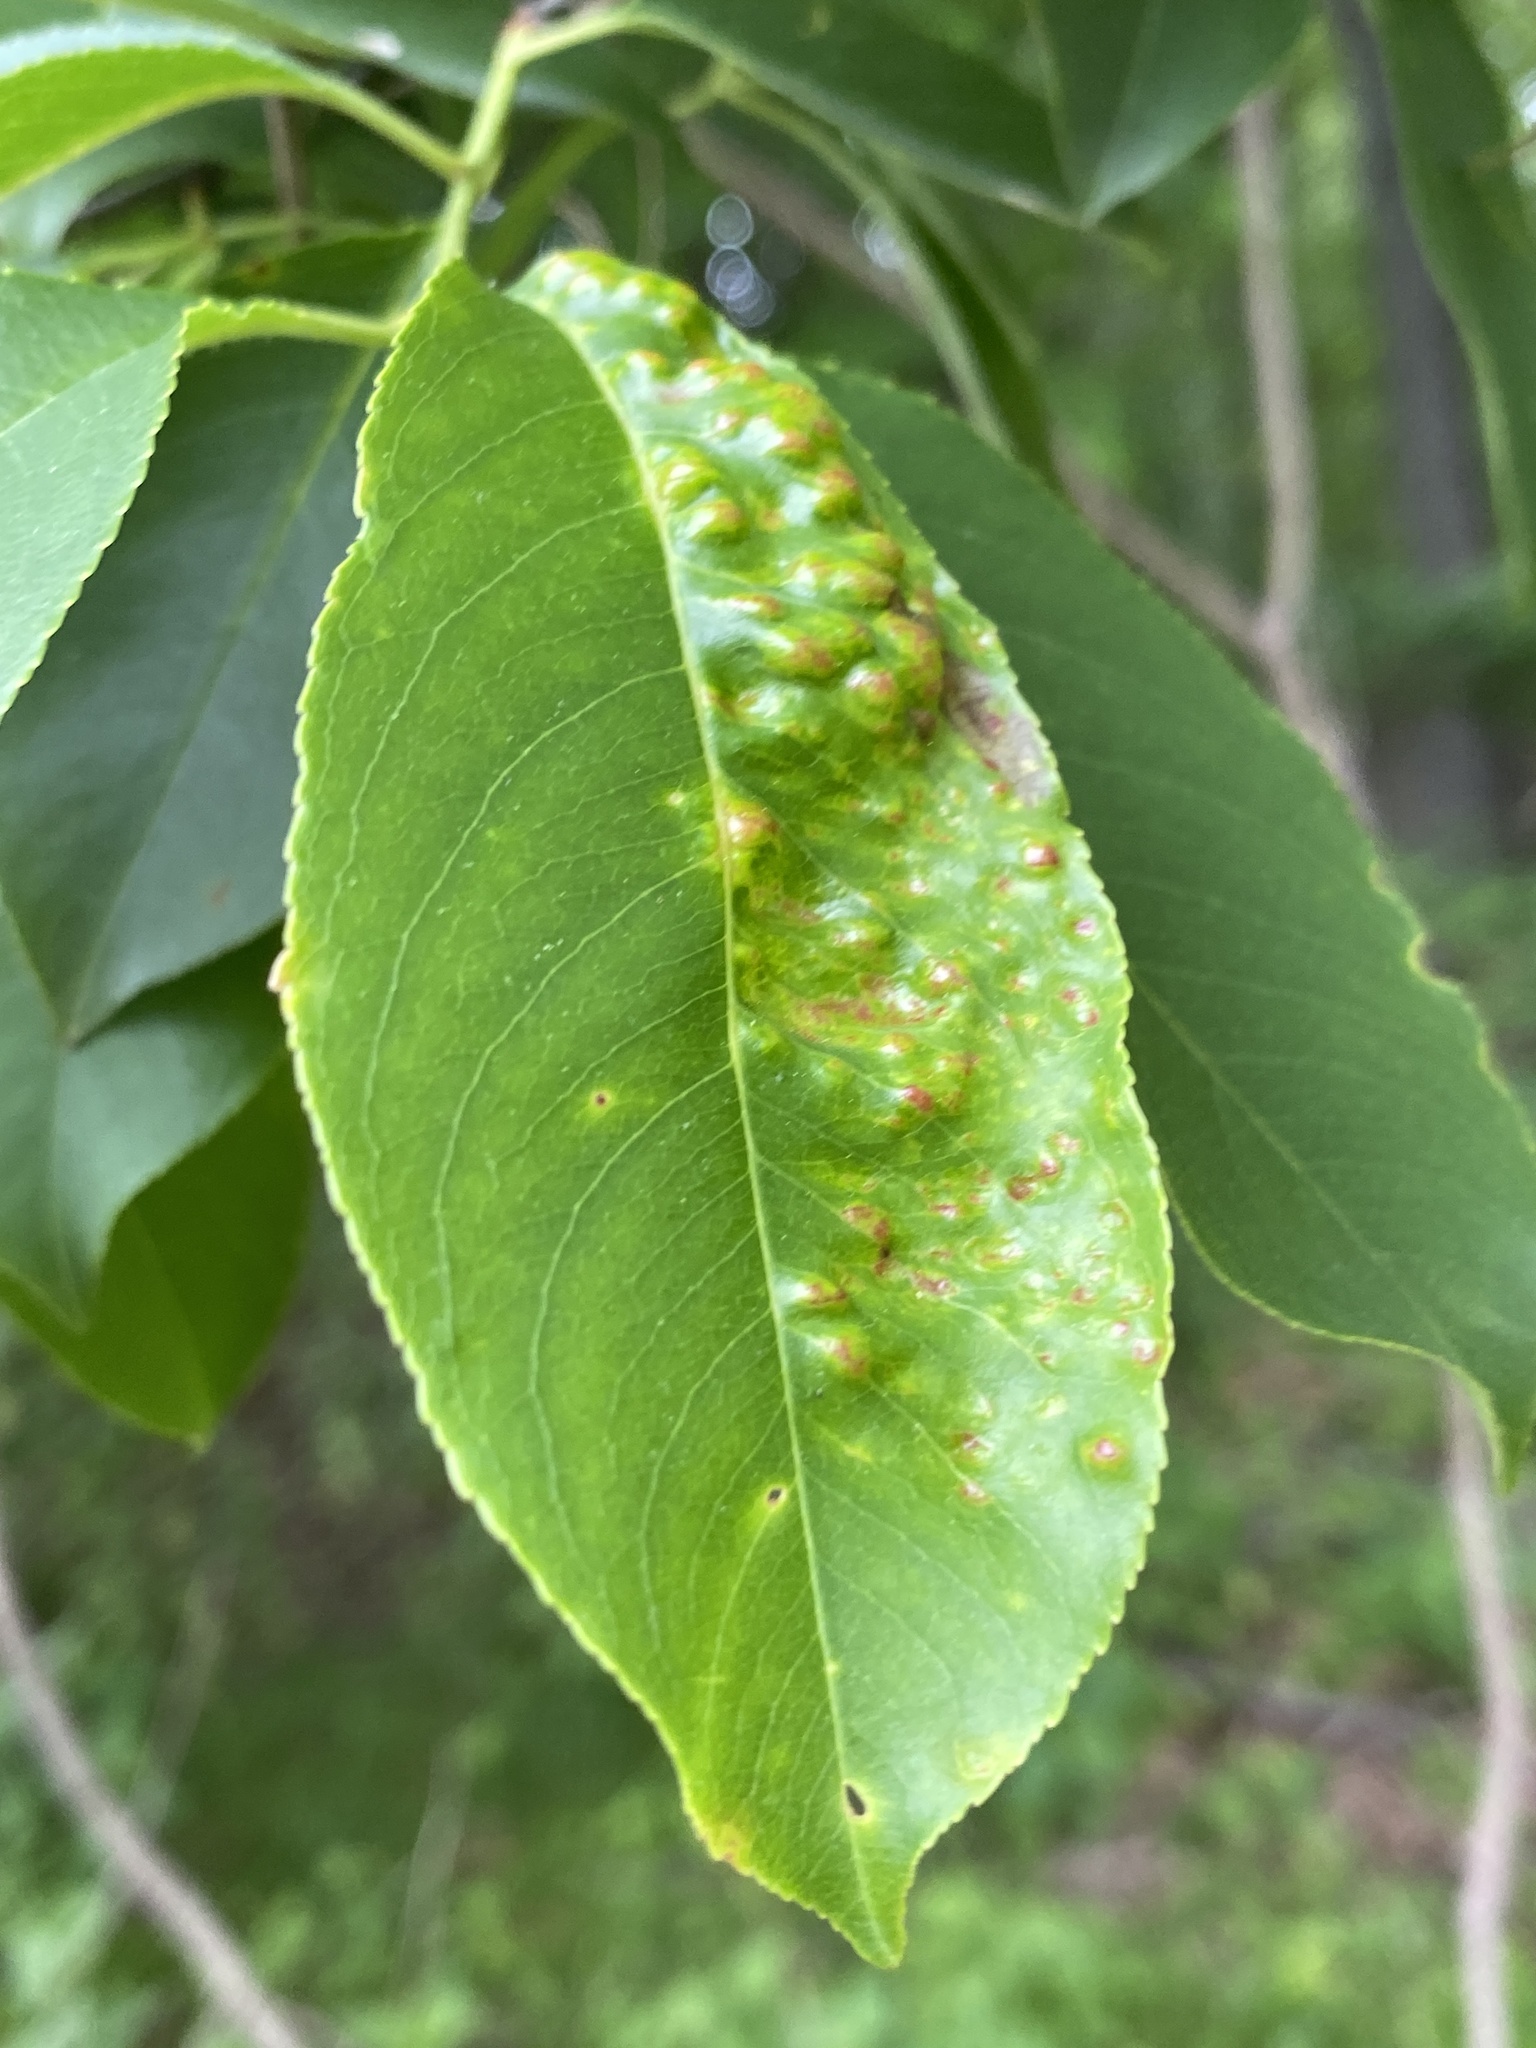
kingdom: Fungi
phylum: Ascomycota
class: Taphrinomycetes
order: Taphrinales
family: Taphrinaceae
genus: Taphrina
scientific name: Taphrina farlowii
